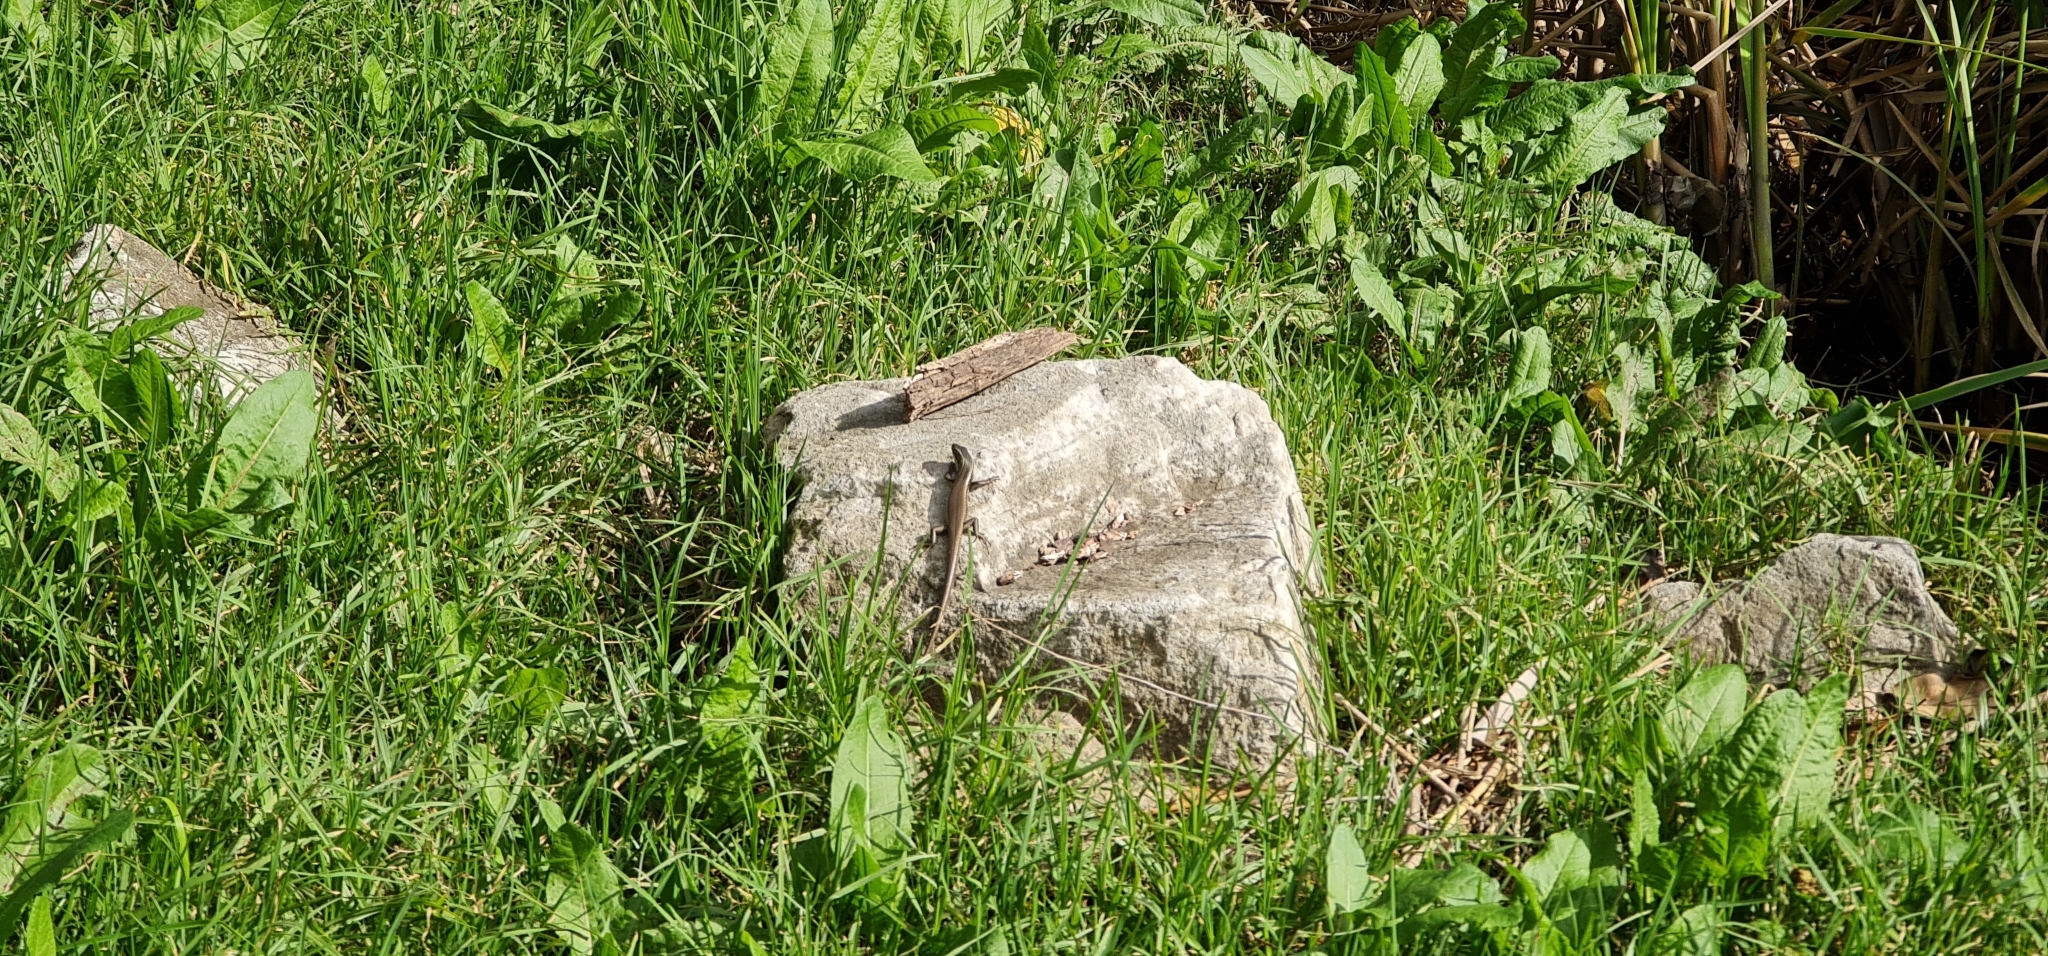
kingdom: Animalia
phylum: Chordata
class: Squamata
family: Scincidae
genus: Eulamprus
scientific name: Eulamprus quoyii
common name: Eastern water skink
